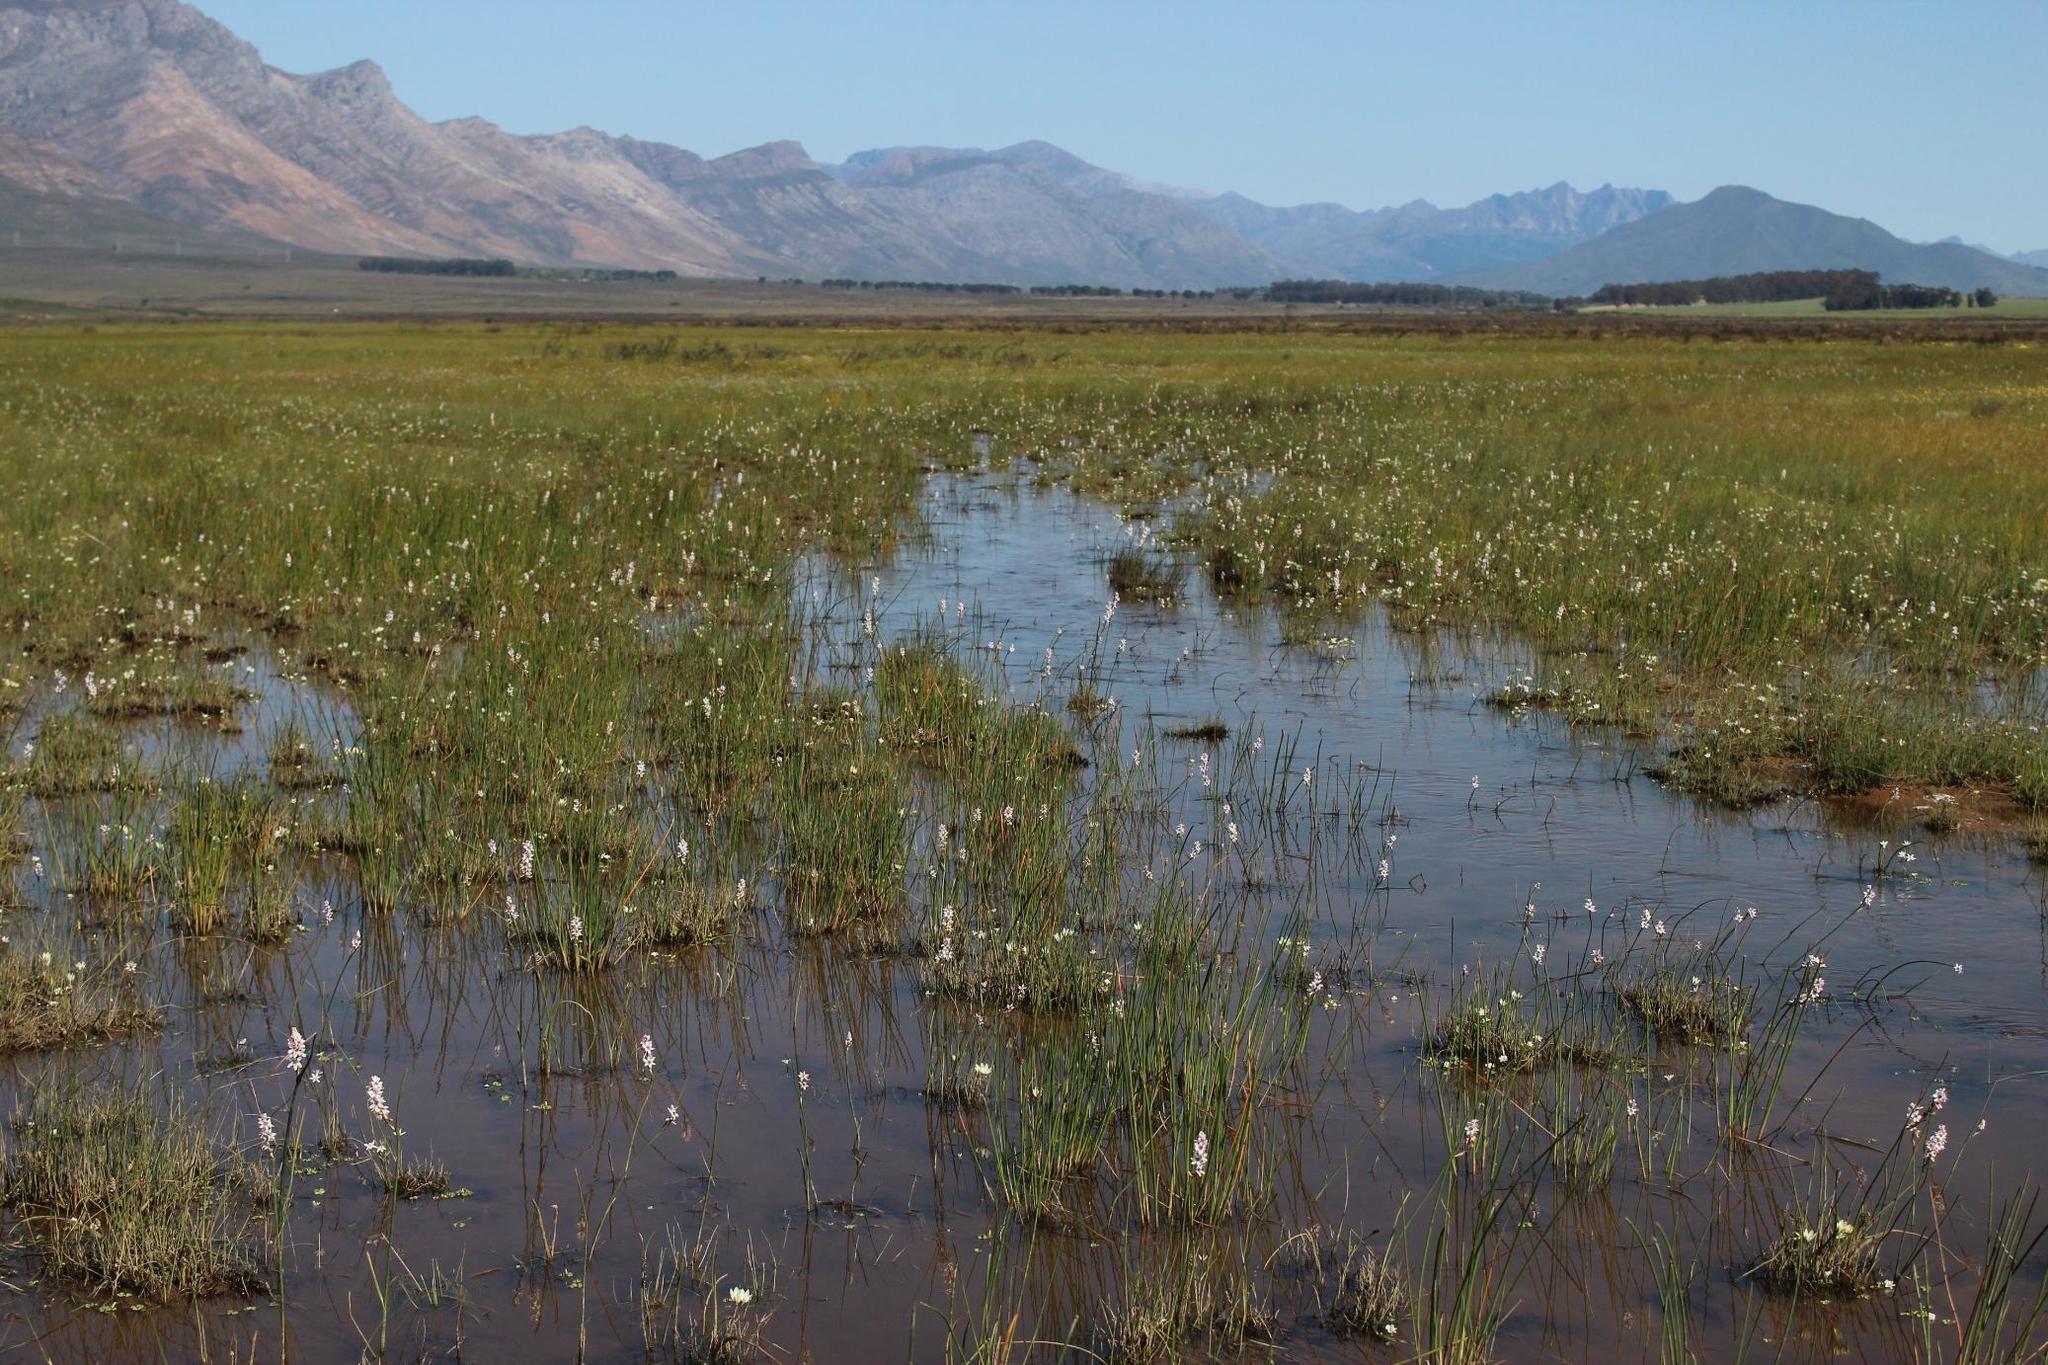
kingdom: Plantae
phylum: Tracheophyta
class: Liliopsida
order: Liliales
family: Colchicaceae
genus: Wurmbea
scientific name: Wurmbea stricta
